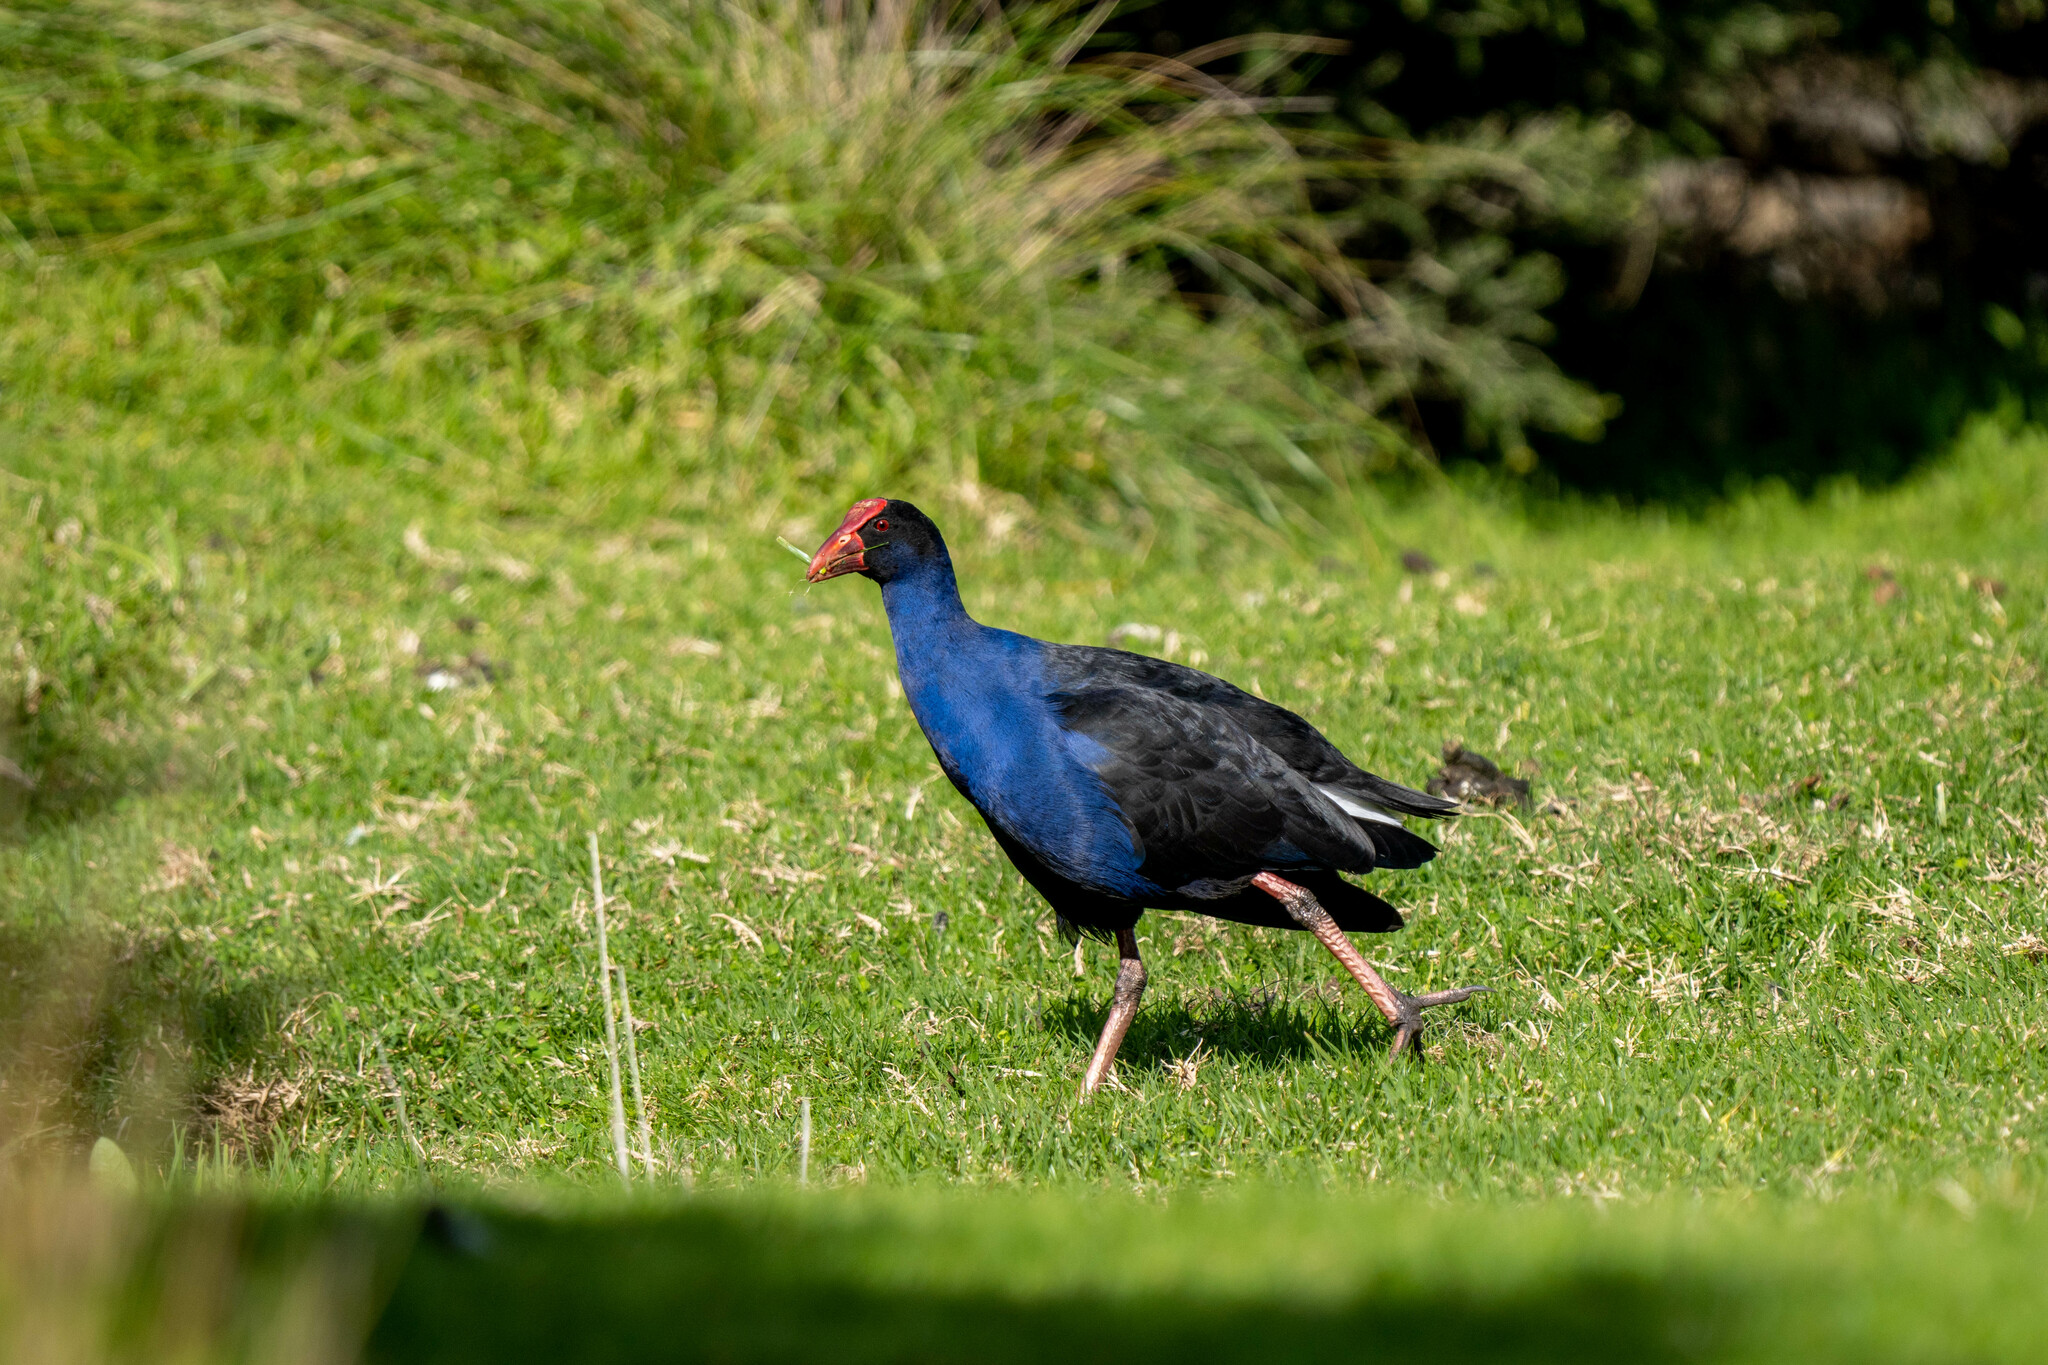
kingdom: Animalia
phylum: Chordata
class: Aves
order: Gruiformes
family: Rallidae
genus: Porphyrio
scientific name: Porphyrio melanotus
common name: Australasian swamphen
